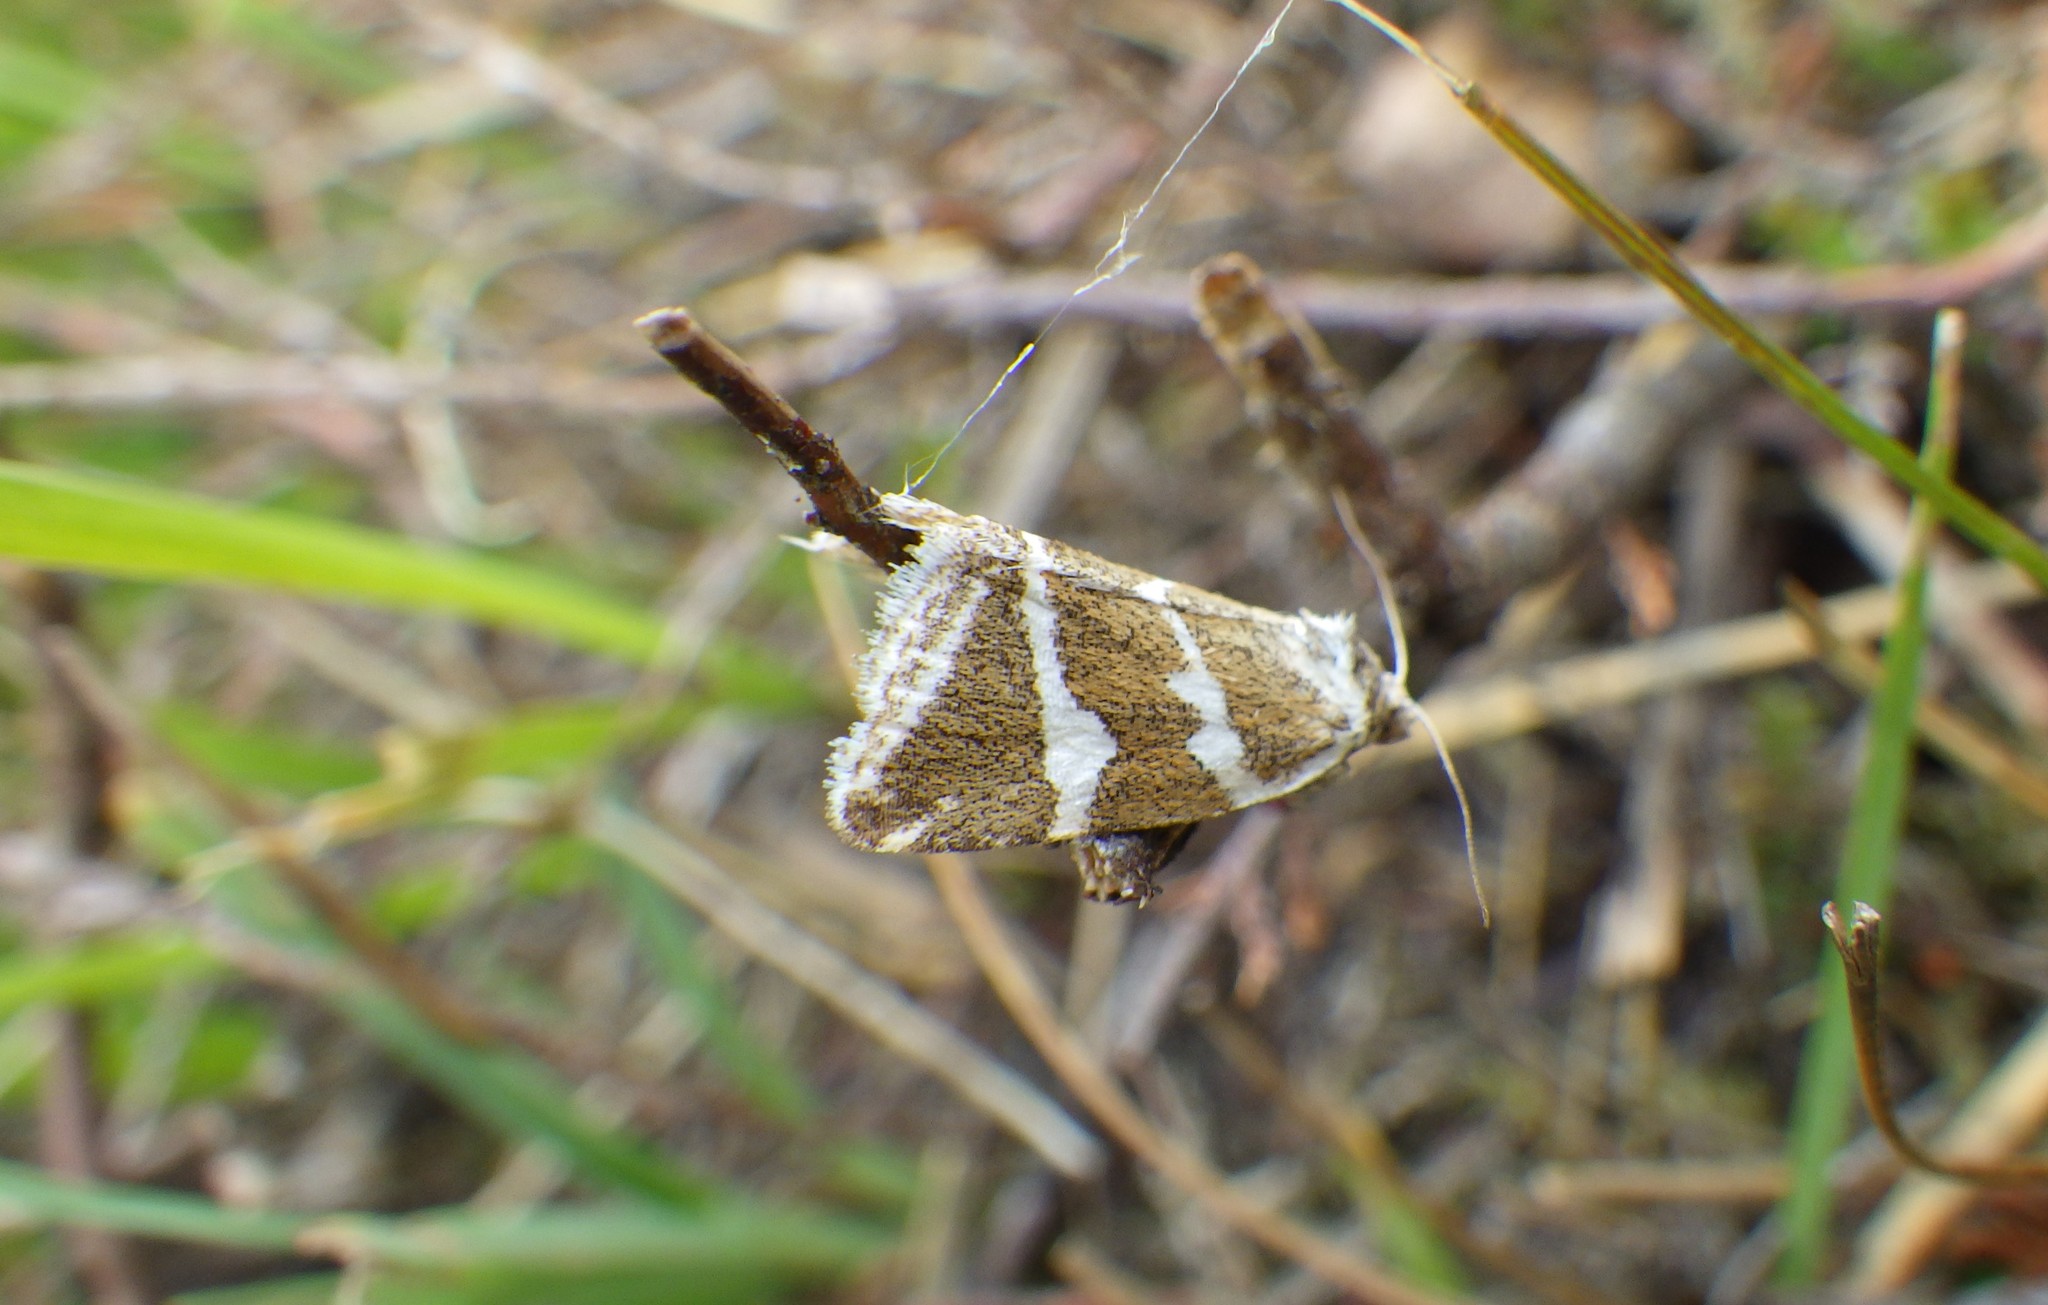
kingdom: Animalia
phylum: Arthropoda
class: Insecta
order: Lepidoptera
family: Noctuidae
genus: Deltote
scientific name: Deltote bankiana
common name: Silver barred
